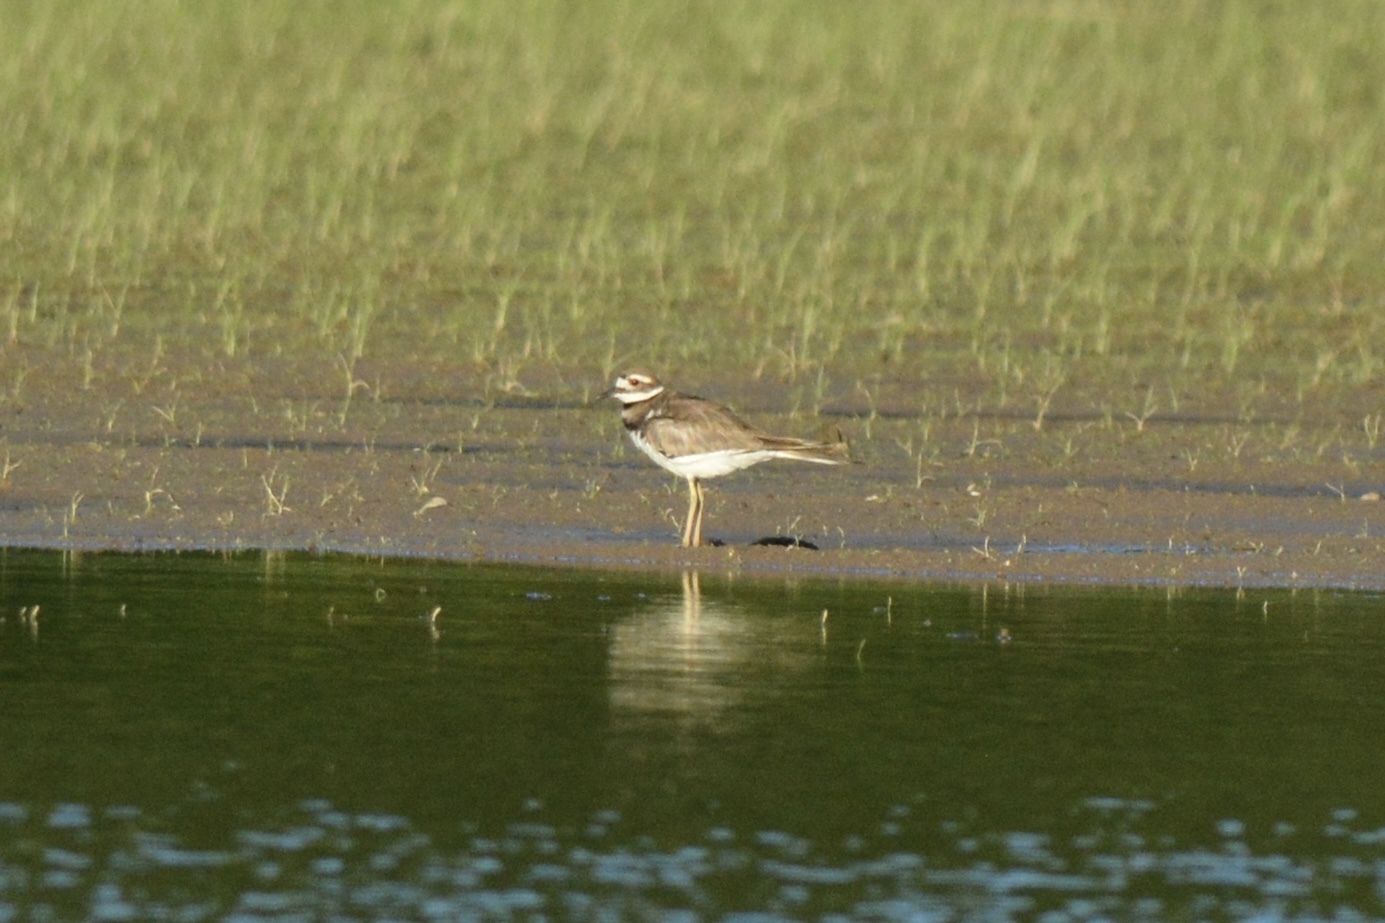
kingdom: Animalia
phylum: Chordata
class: Aves
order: Charadriiformes
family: Charadriidae
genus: Charadrius
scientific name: Charadrius vociferus
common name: Killdeer
